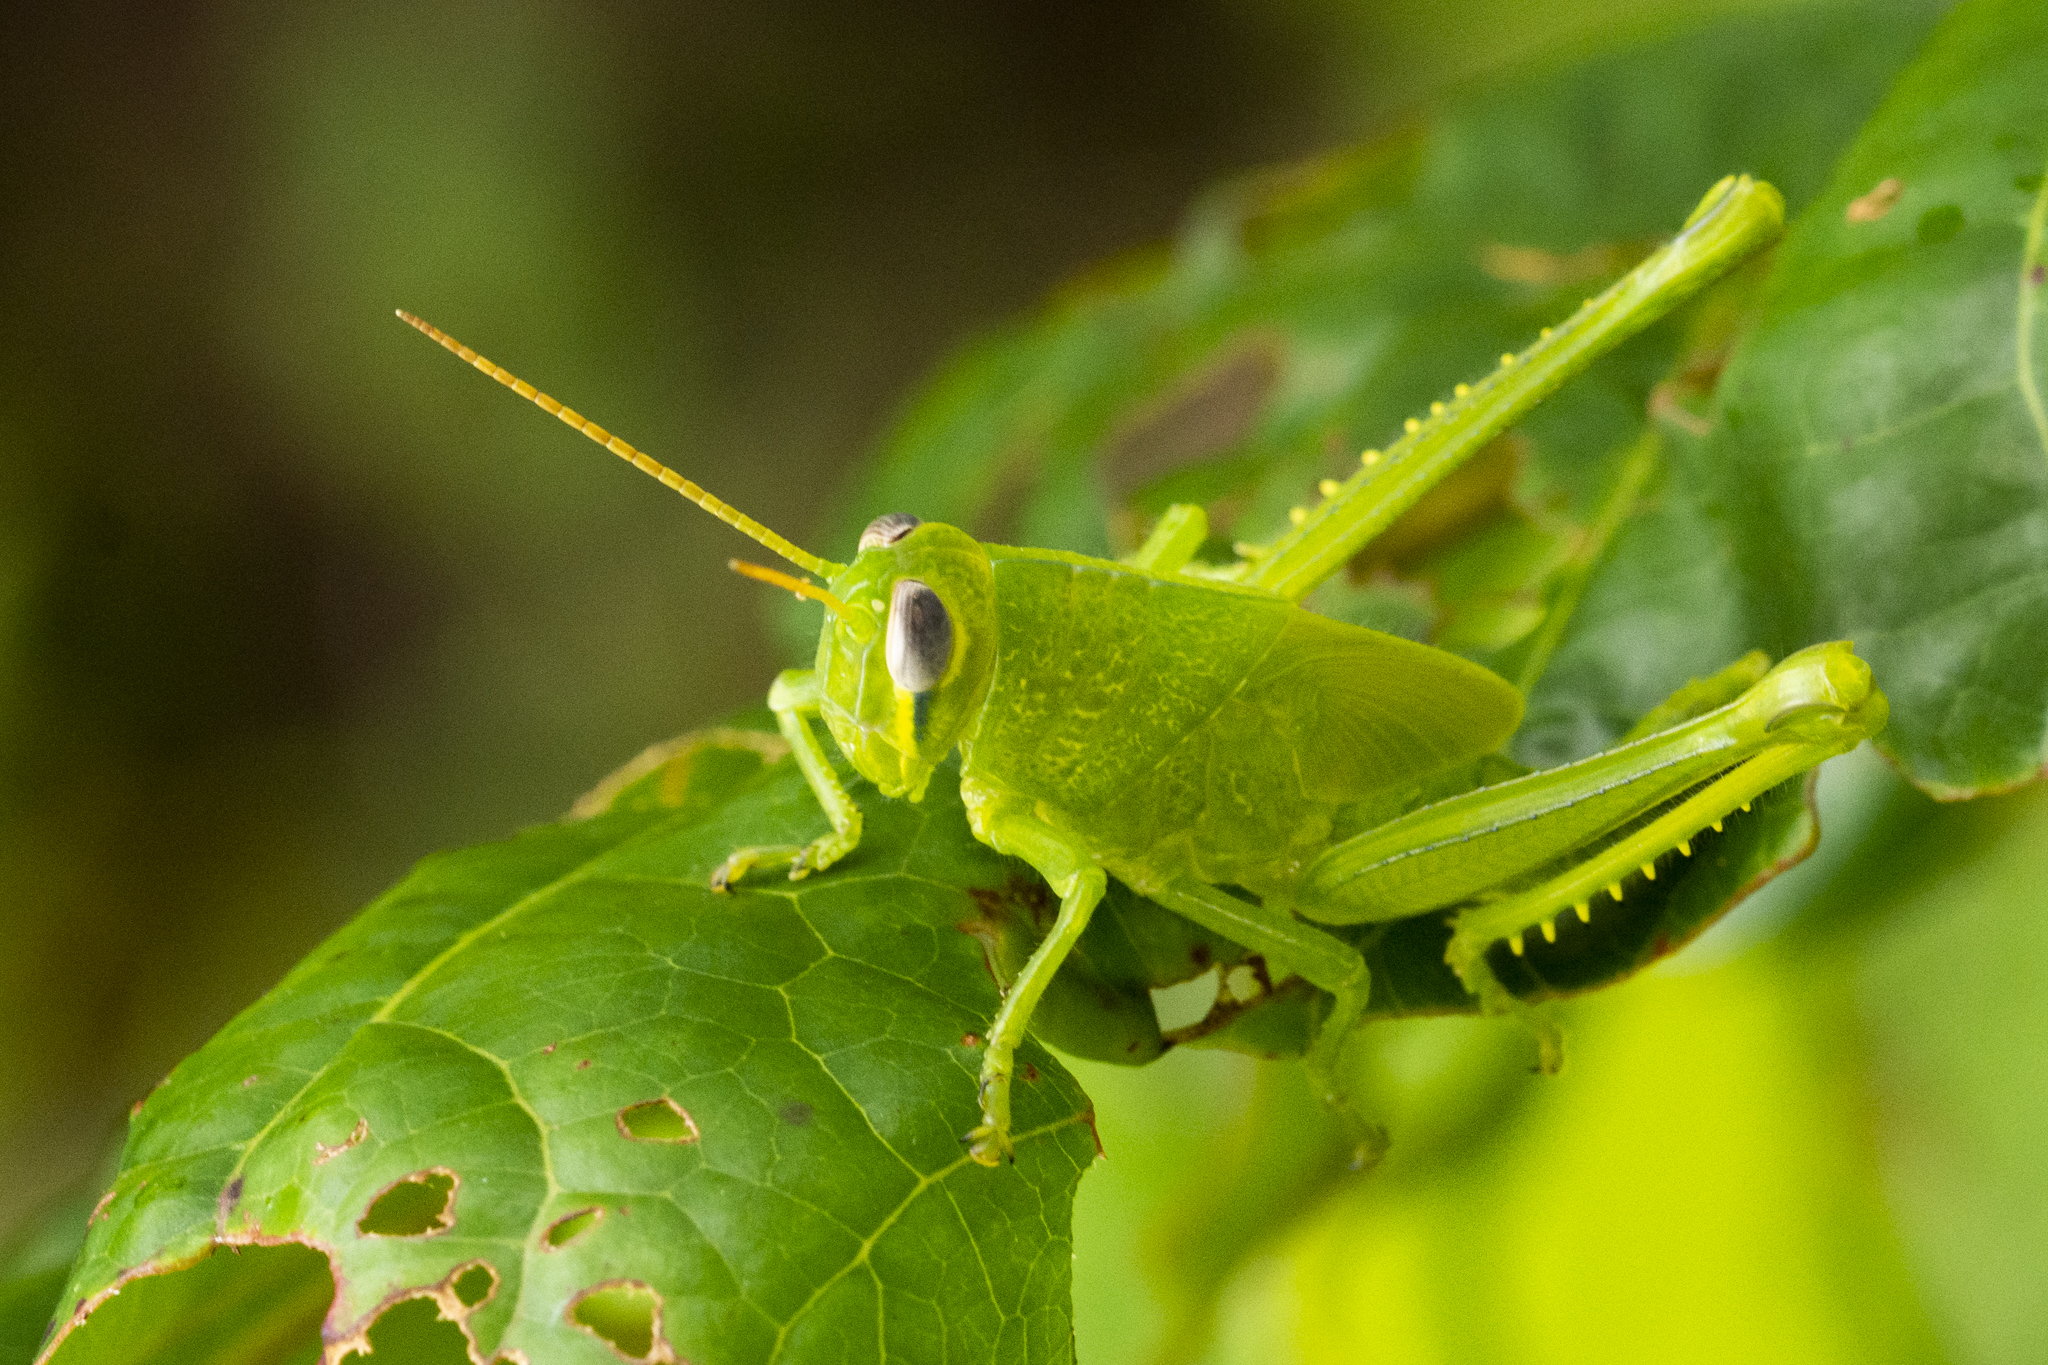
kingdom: Animalia
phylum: Arthropoda
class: Insecta
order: Orthoptera
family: Acrididae
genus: Valanga
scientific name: Valanga nigricornis
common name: Javanese bird grasshopper
